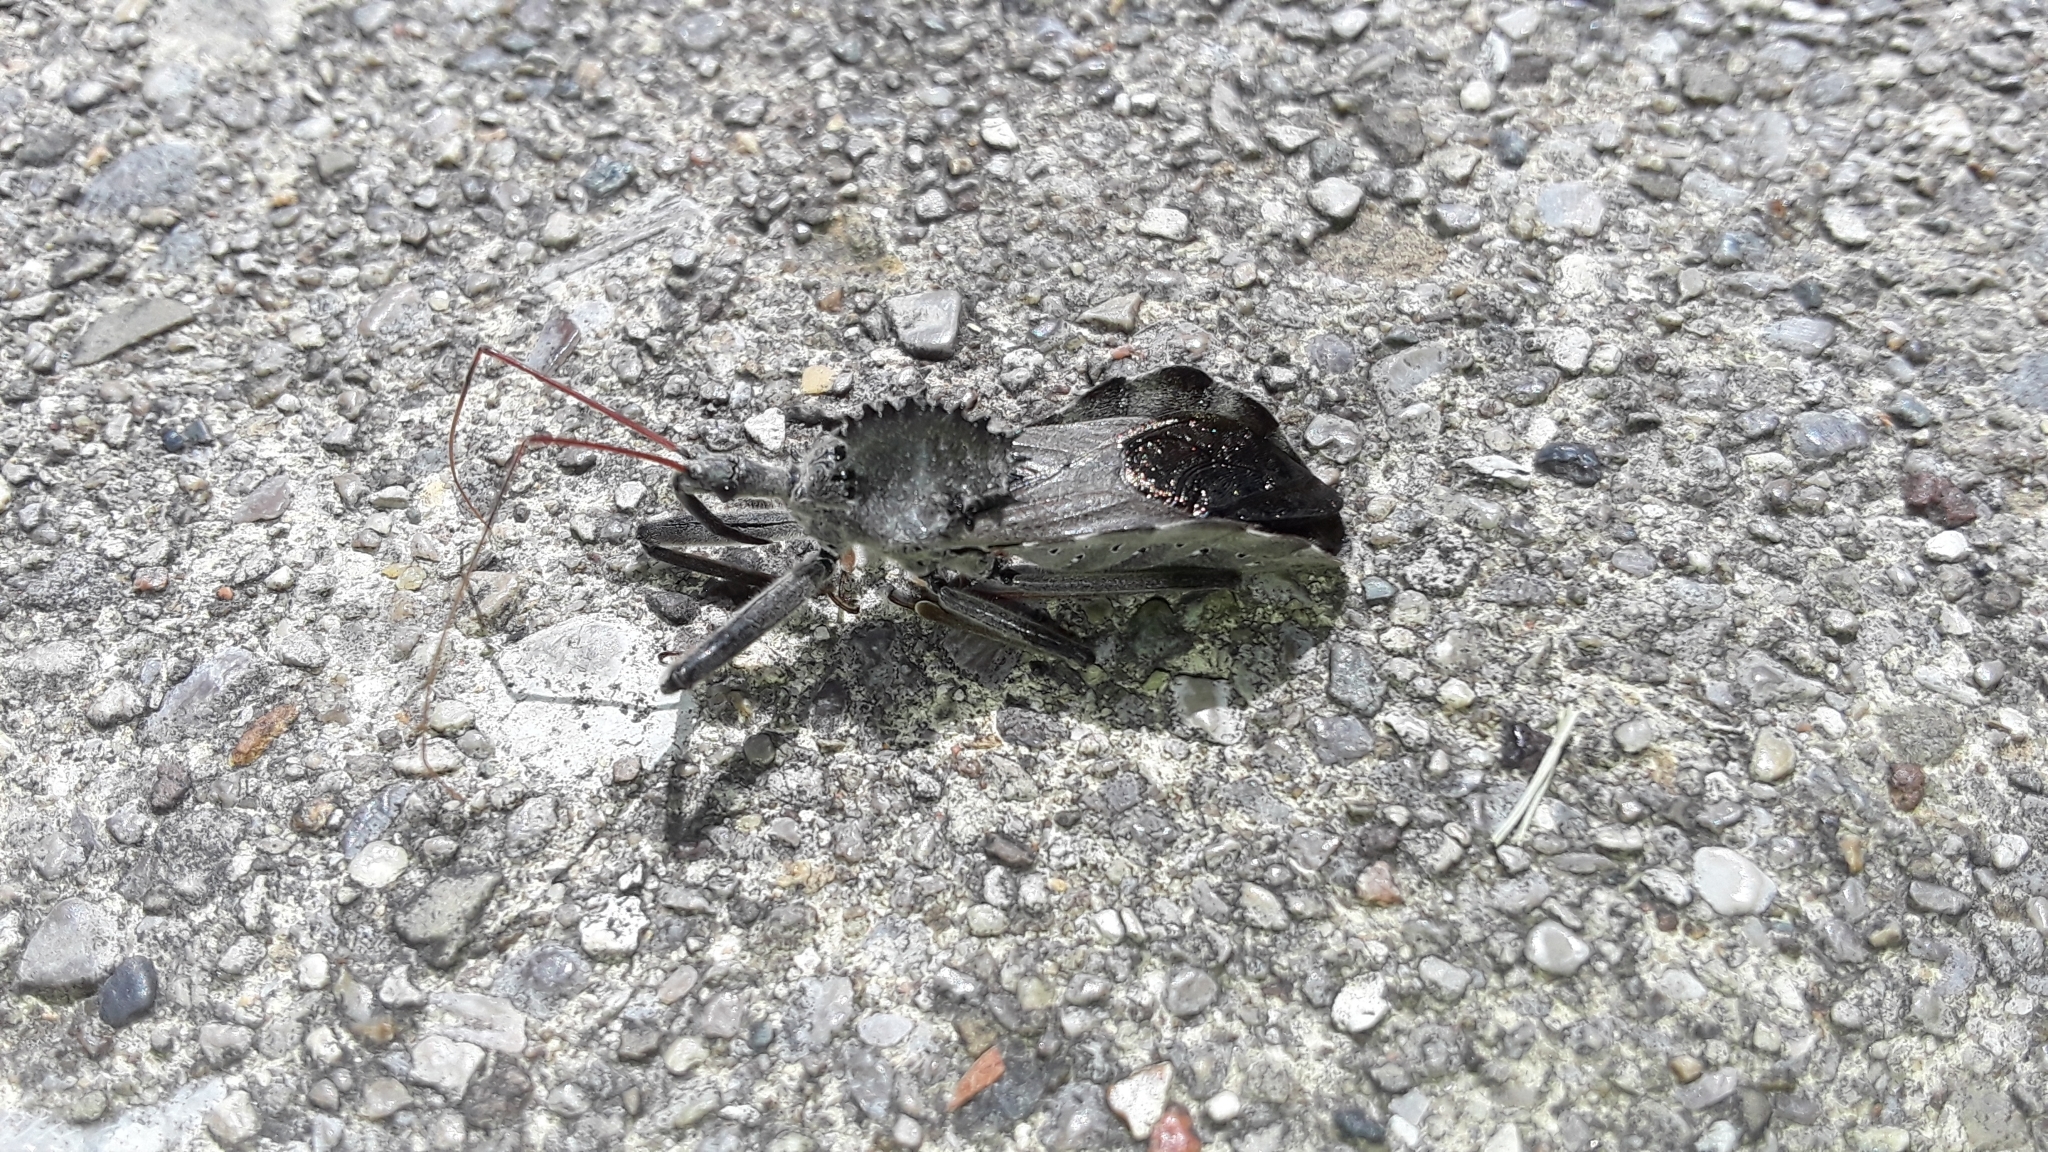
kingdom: Animalia
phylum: Arthropoda
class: Insecta
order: Hemiptera
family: Reduviidae
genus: Arilus
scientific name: Arilus cristatus
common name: North american wheel bug
